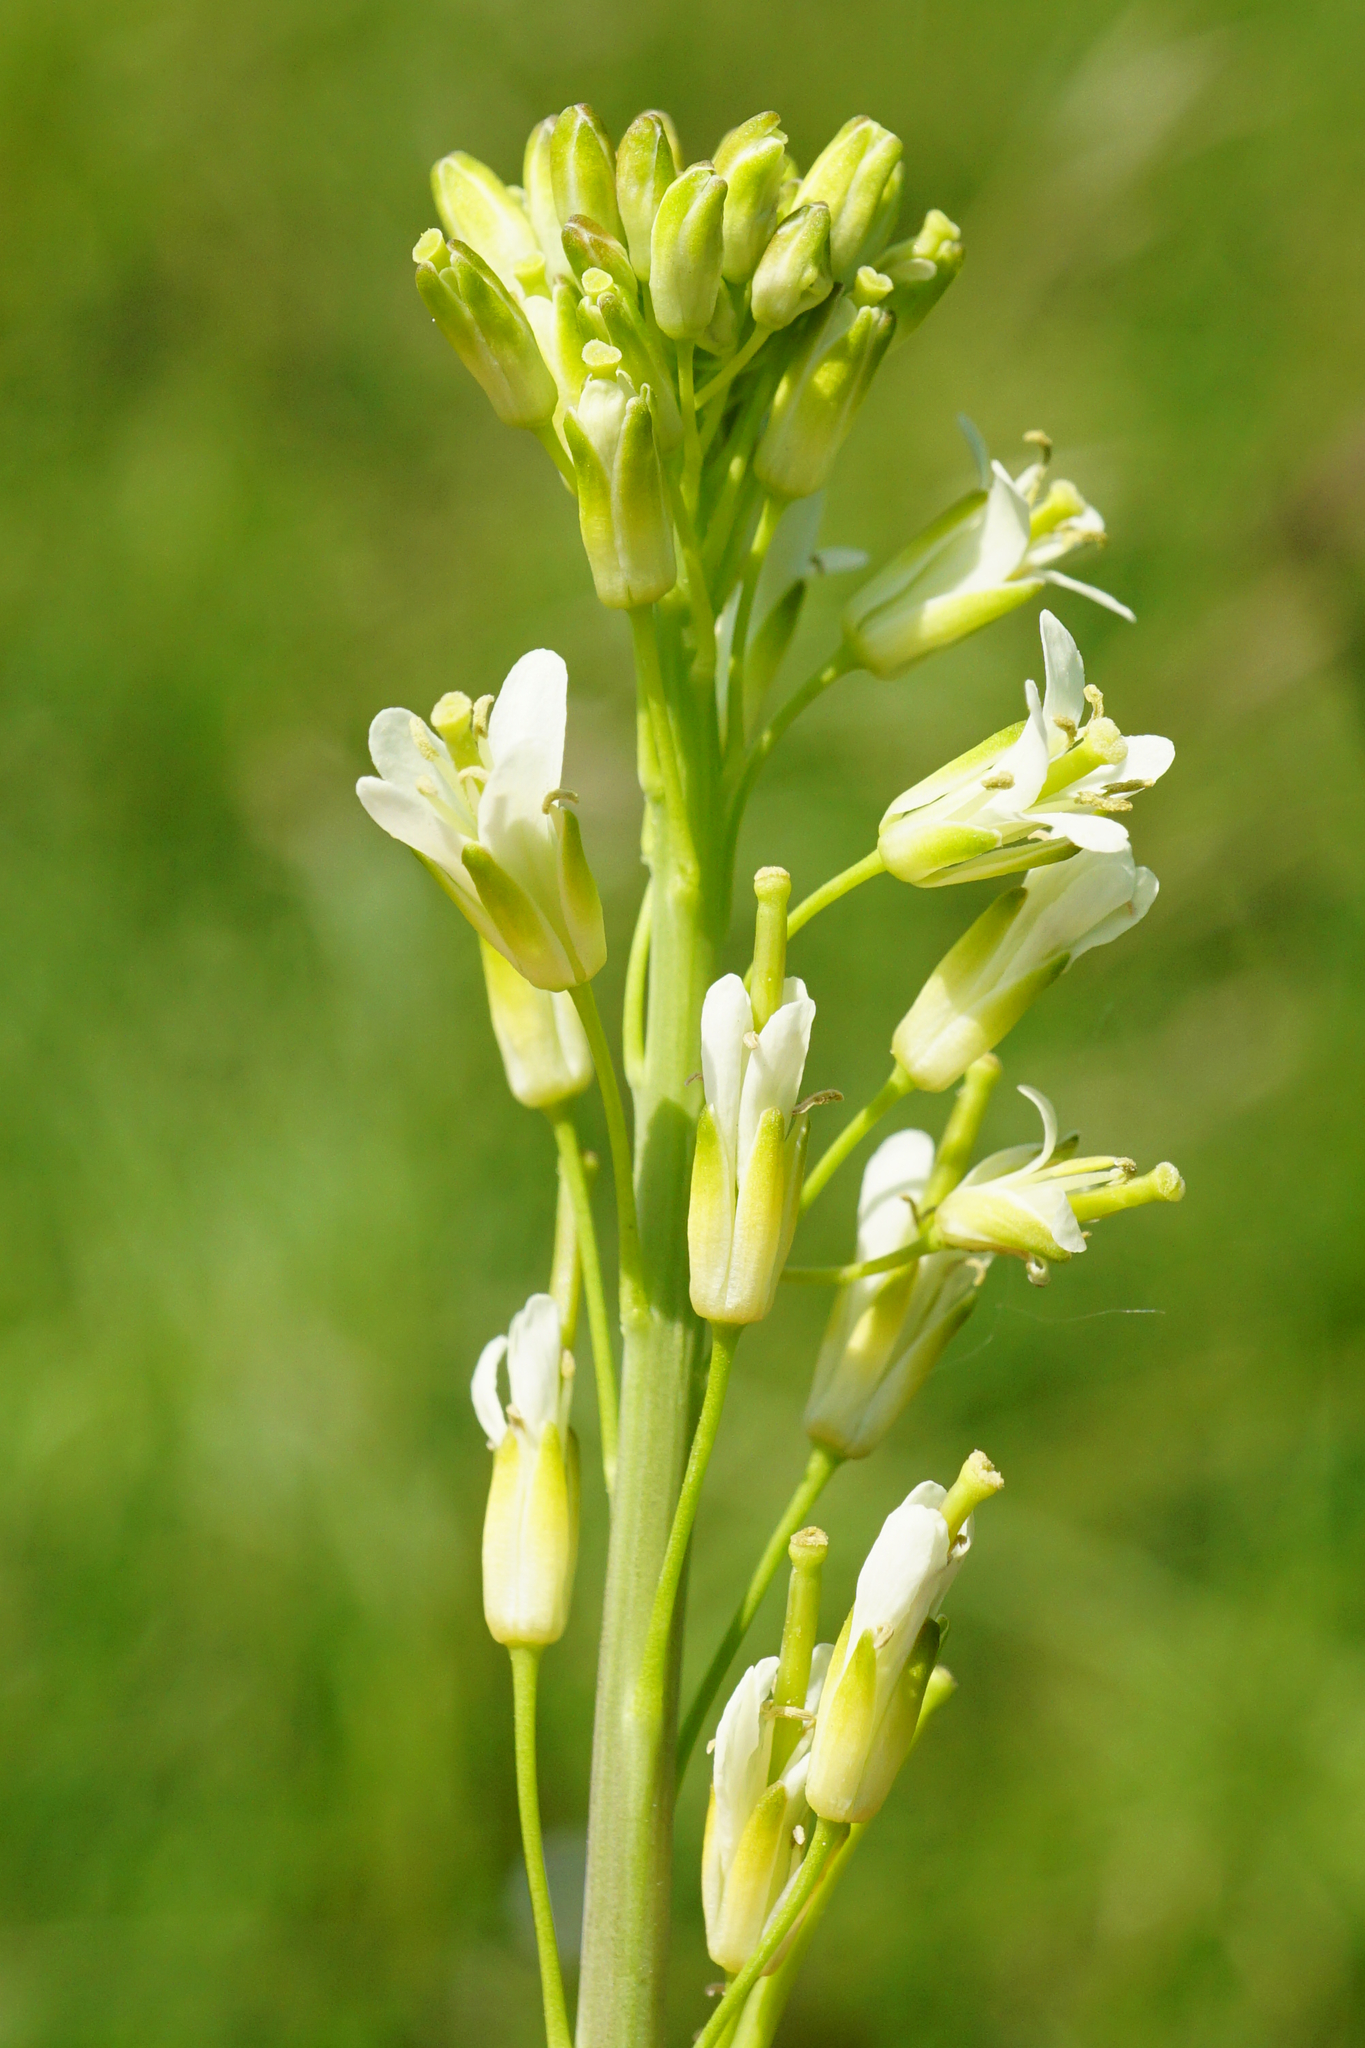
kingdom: Plantae
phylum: Tracheophyta
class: Magnoliopsida
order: Brassicales
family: Brassicaceae
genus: Turritis
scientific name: Turritis glabra
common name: Tower rockcress
